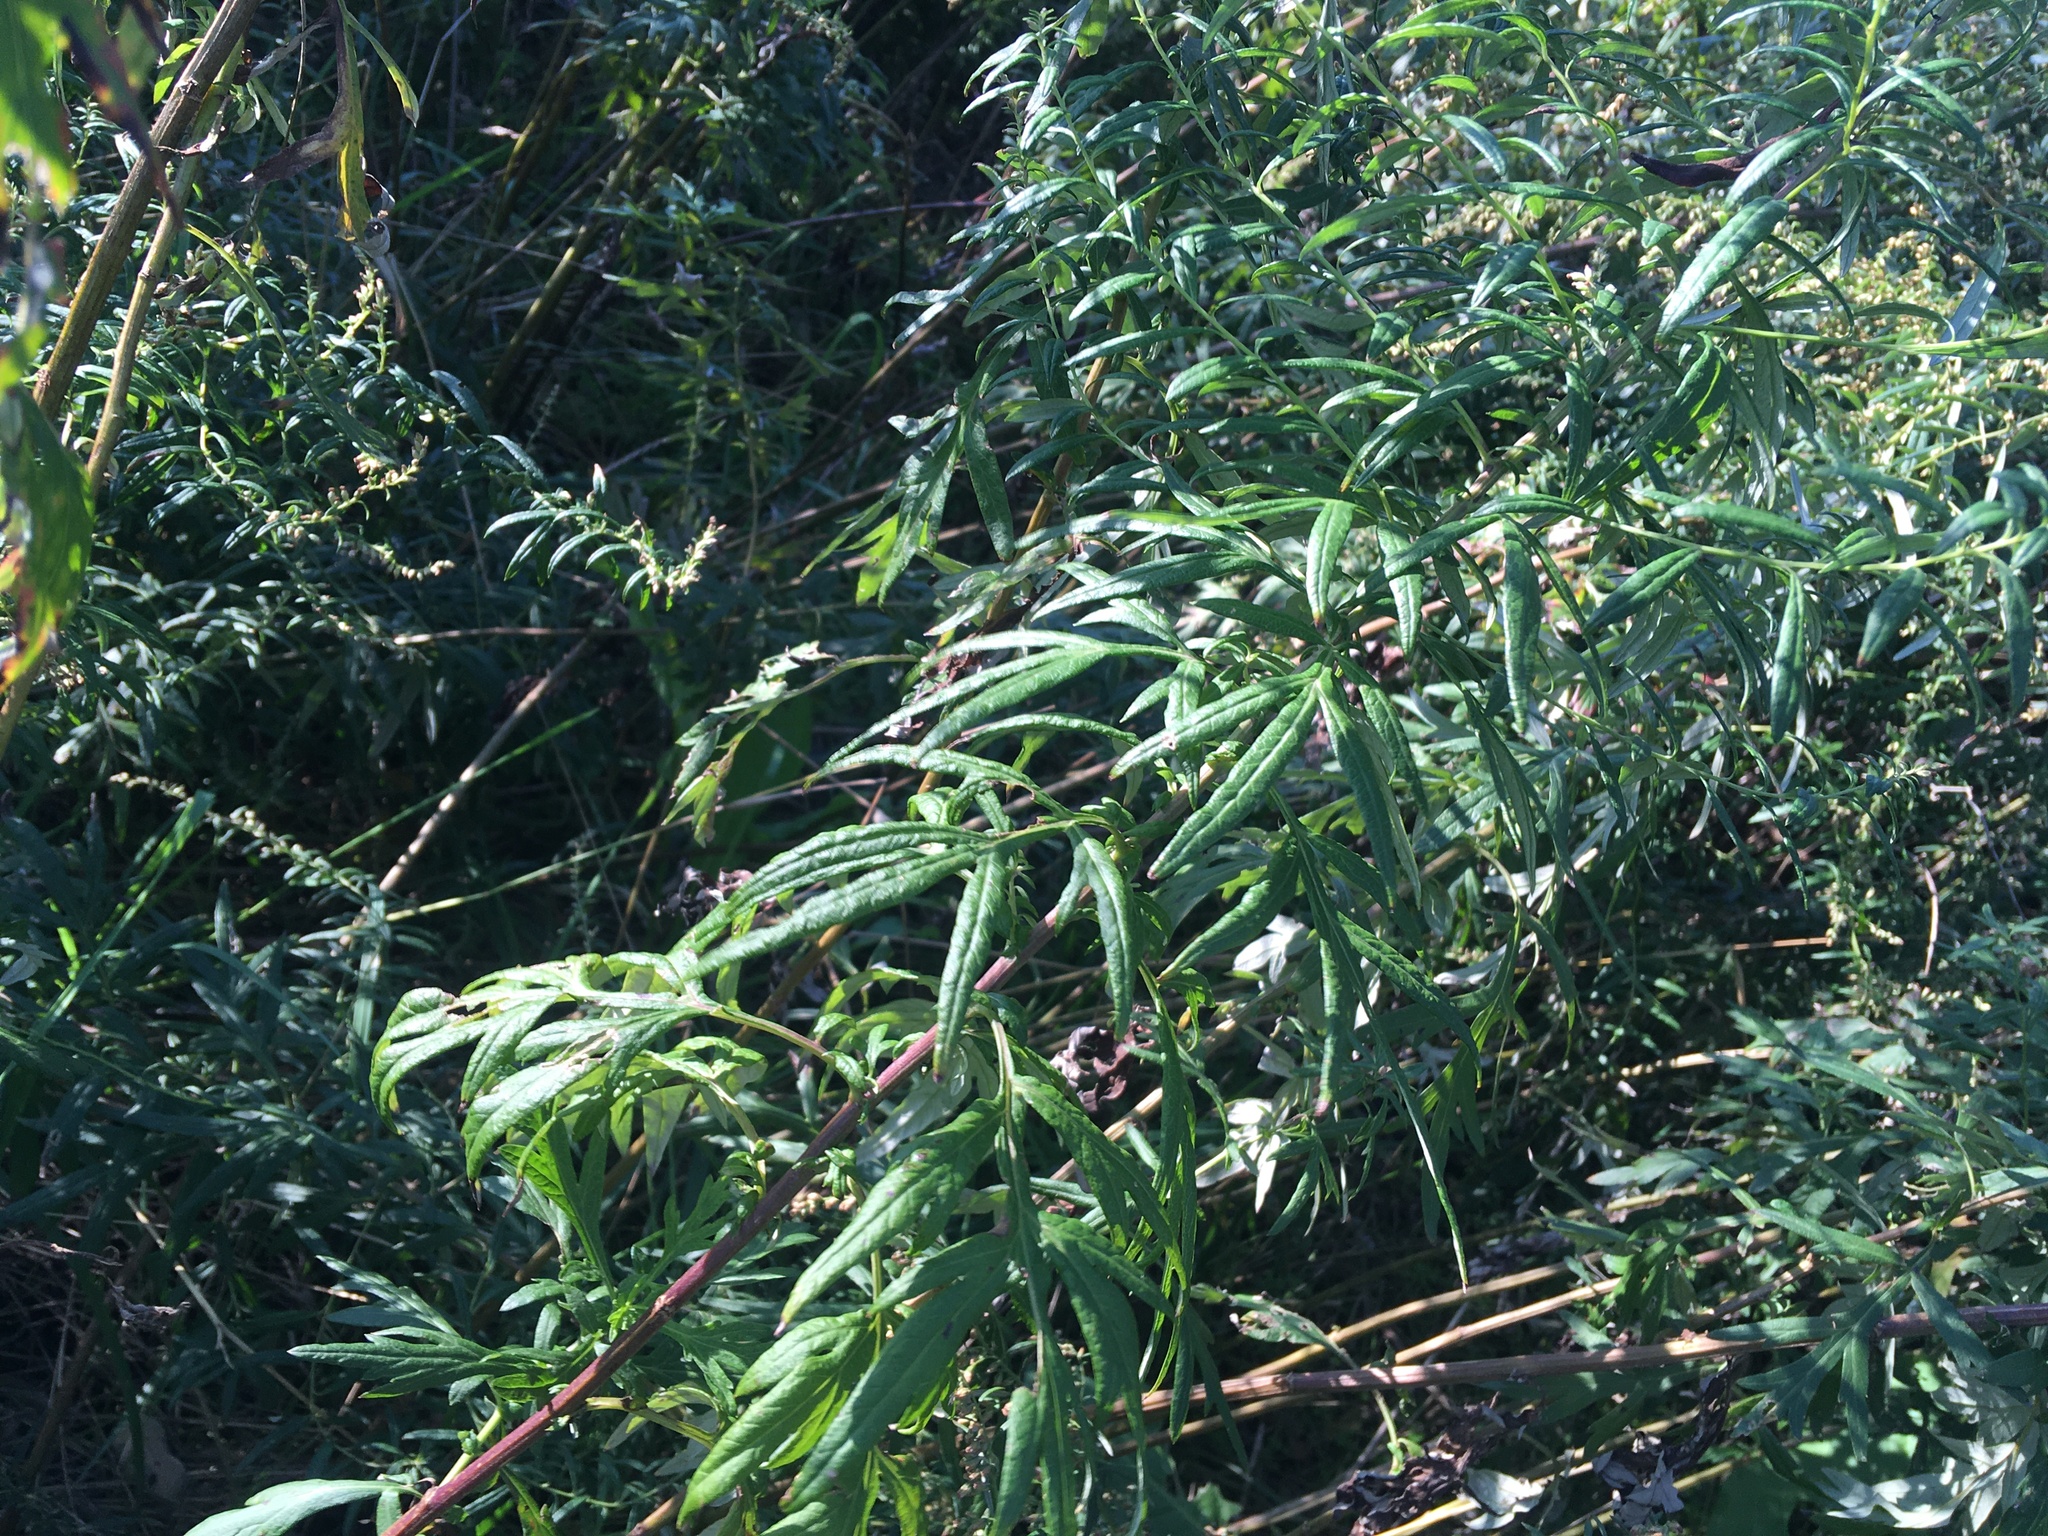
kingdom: Plantae
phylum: Tracheophyta
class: Magnoliopsida
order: Asterales
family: Asteraceae
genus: Artemisia
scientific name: Artemisia vulgaris
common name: Mugwort
